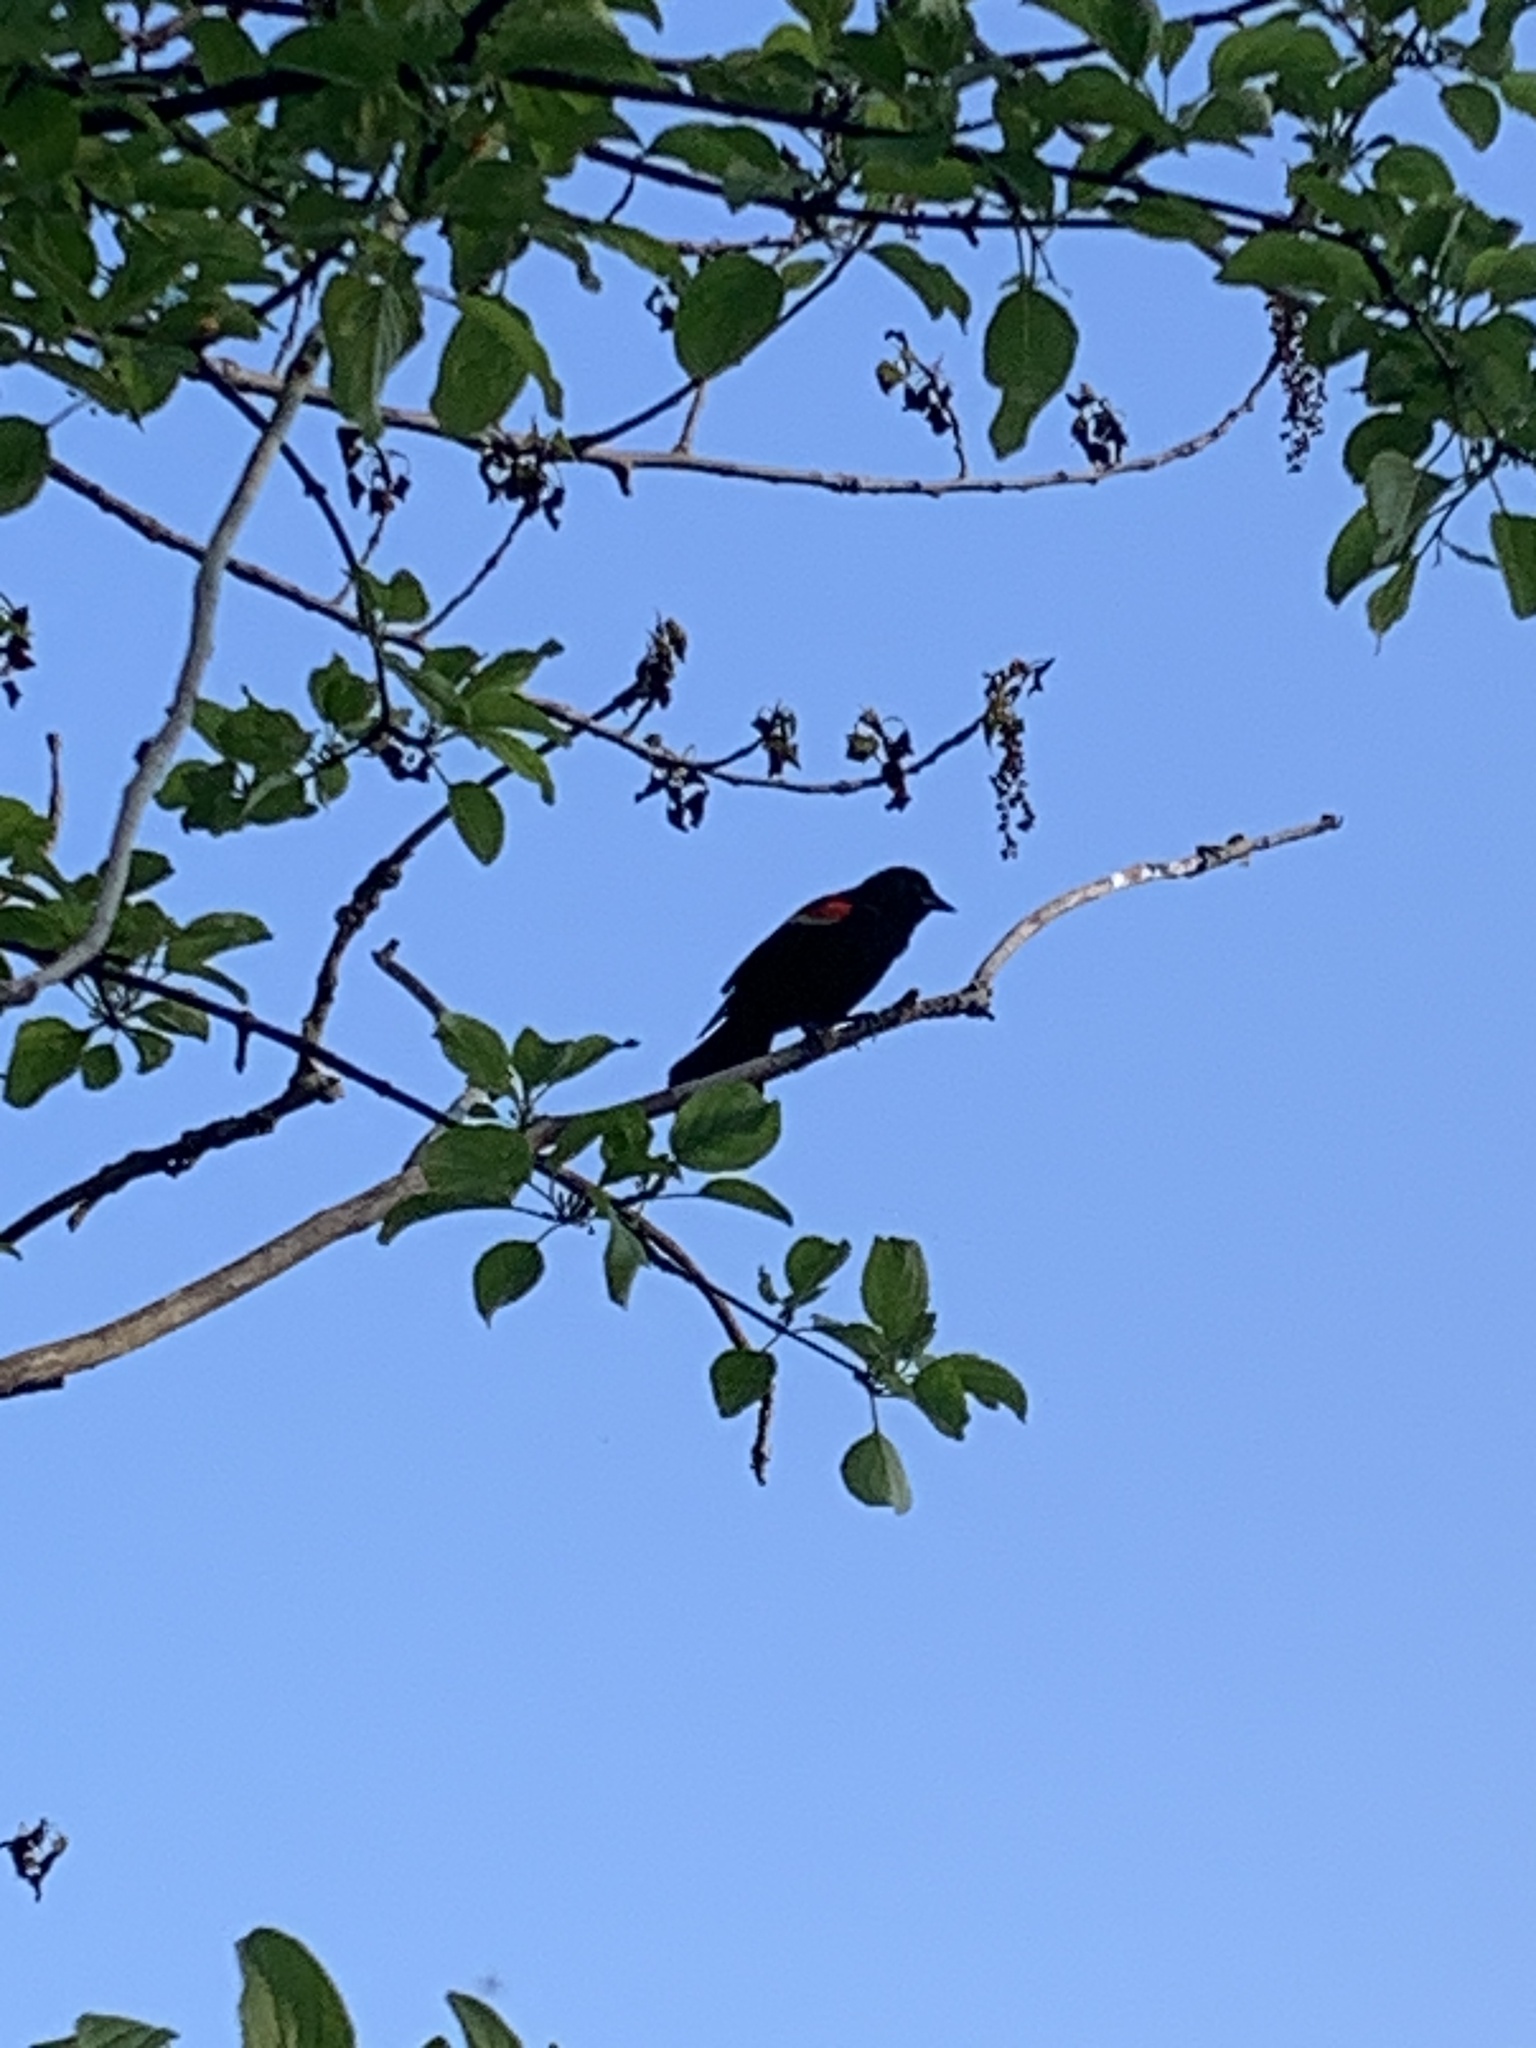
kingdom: Animalia
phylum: Chordata
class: Aves
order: Passeriformes
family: Icteridae
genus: Agelaius
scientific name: Agelaius phoeniceus
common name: Red-winged blackbird
